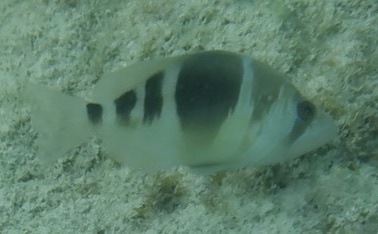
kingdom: Animalia
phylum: Chordata
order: Perciformes
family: Serranidae
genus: Hypoplectrus
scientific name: Hypoplectrus puella
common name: Barred hamlet
